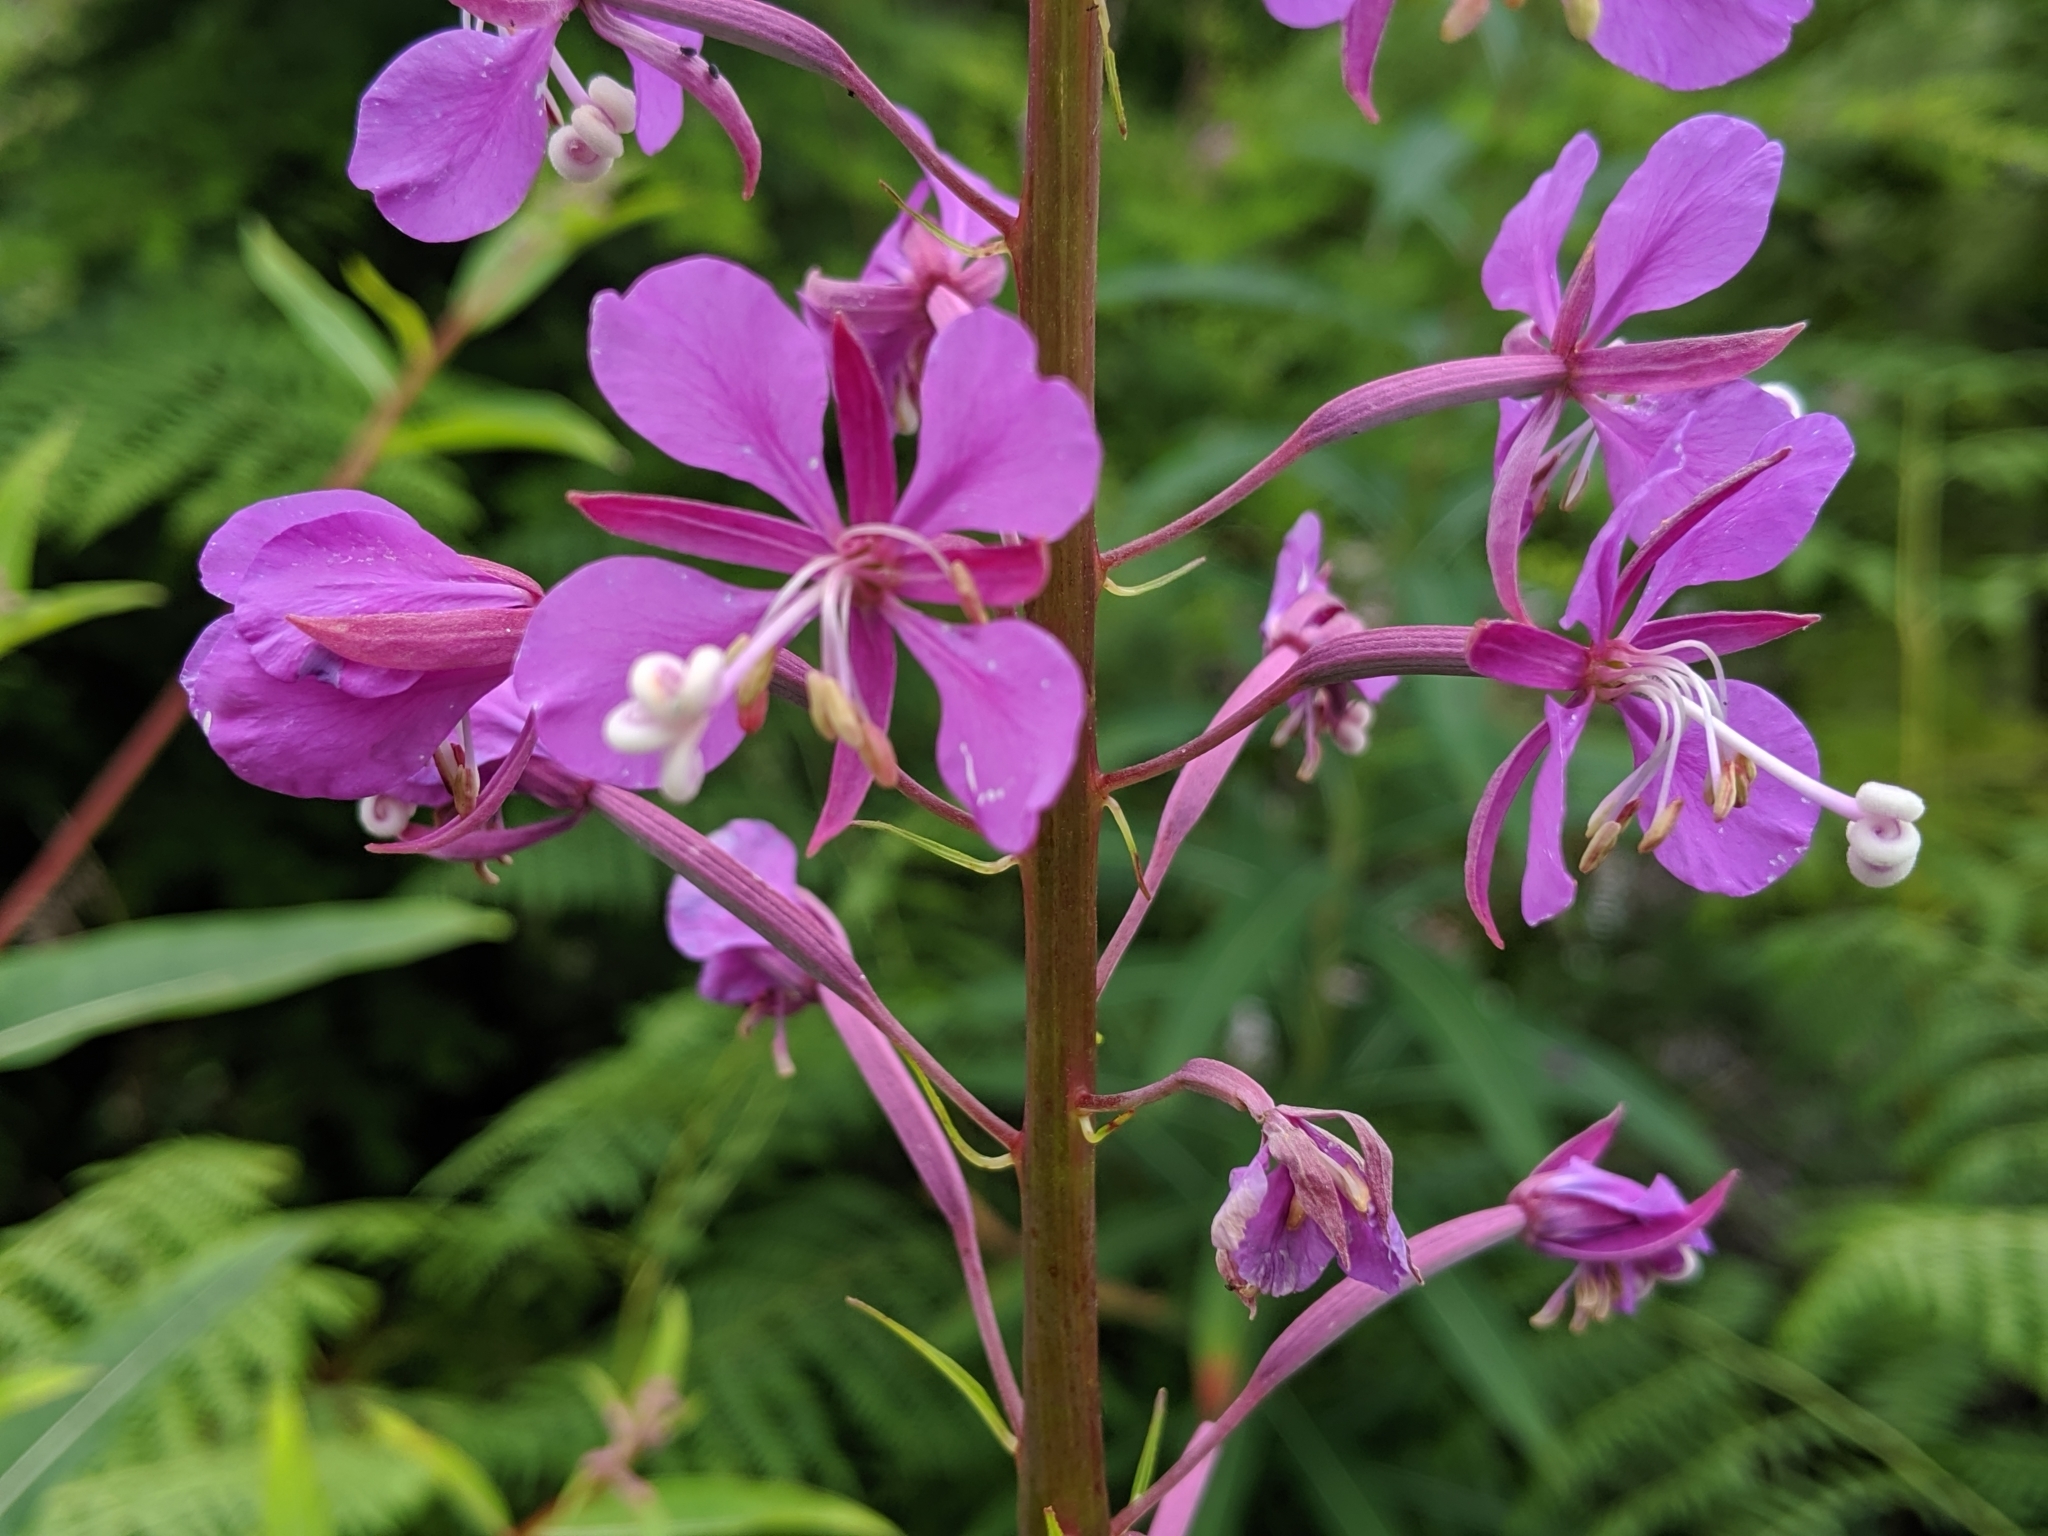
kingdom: Plantae
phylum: Tracheophyta
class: Magnoliopsida
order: Myrtales
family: Onagraceae
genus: Chamaenerion
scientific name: Chamaenerion angustifolium
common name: Fireweed
